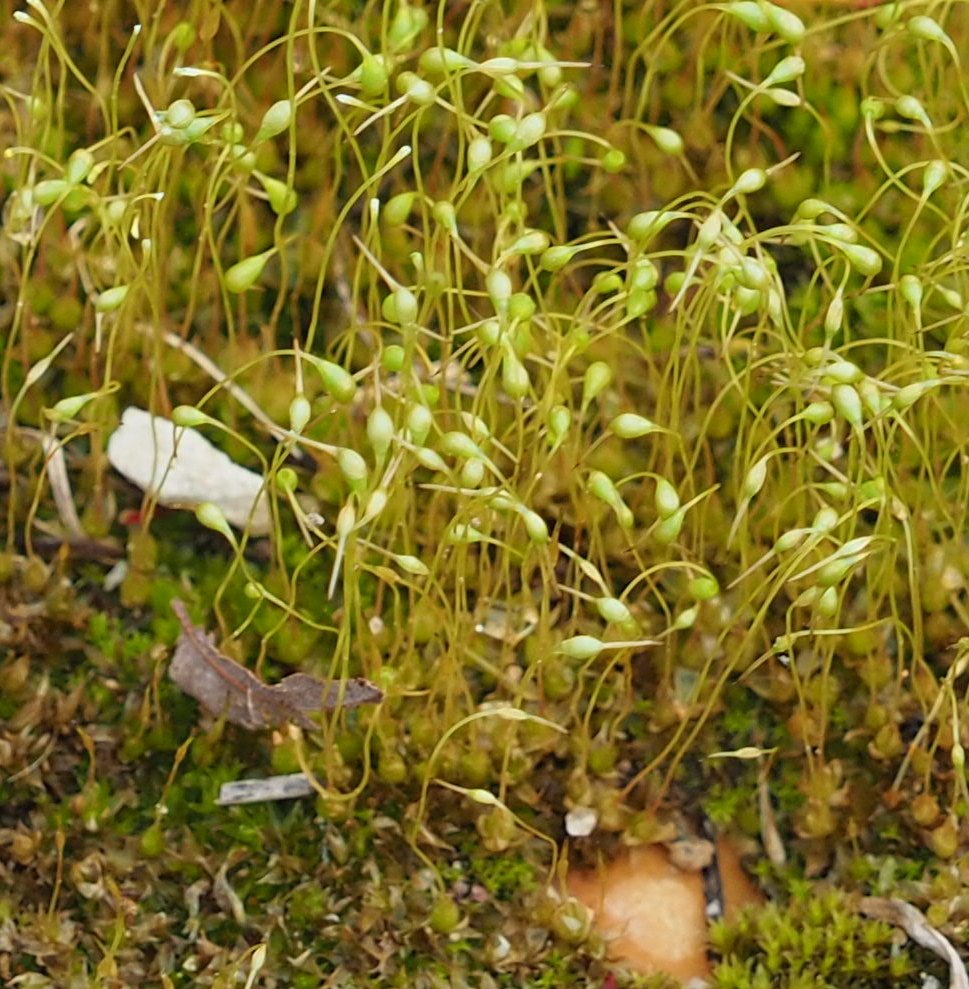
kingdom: Plantae
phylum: Bryophyta
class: Bryopsida
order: Funariales
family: Funariaceae
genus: Physcomitrium
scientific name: Physcomitrium pyriforme
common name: Common bladder-moss
